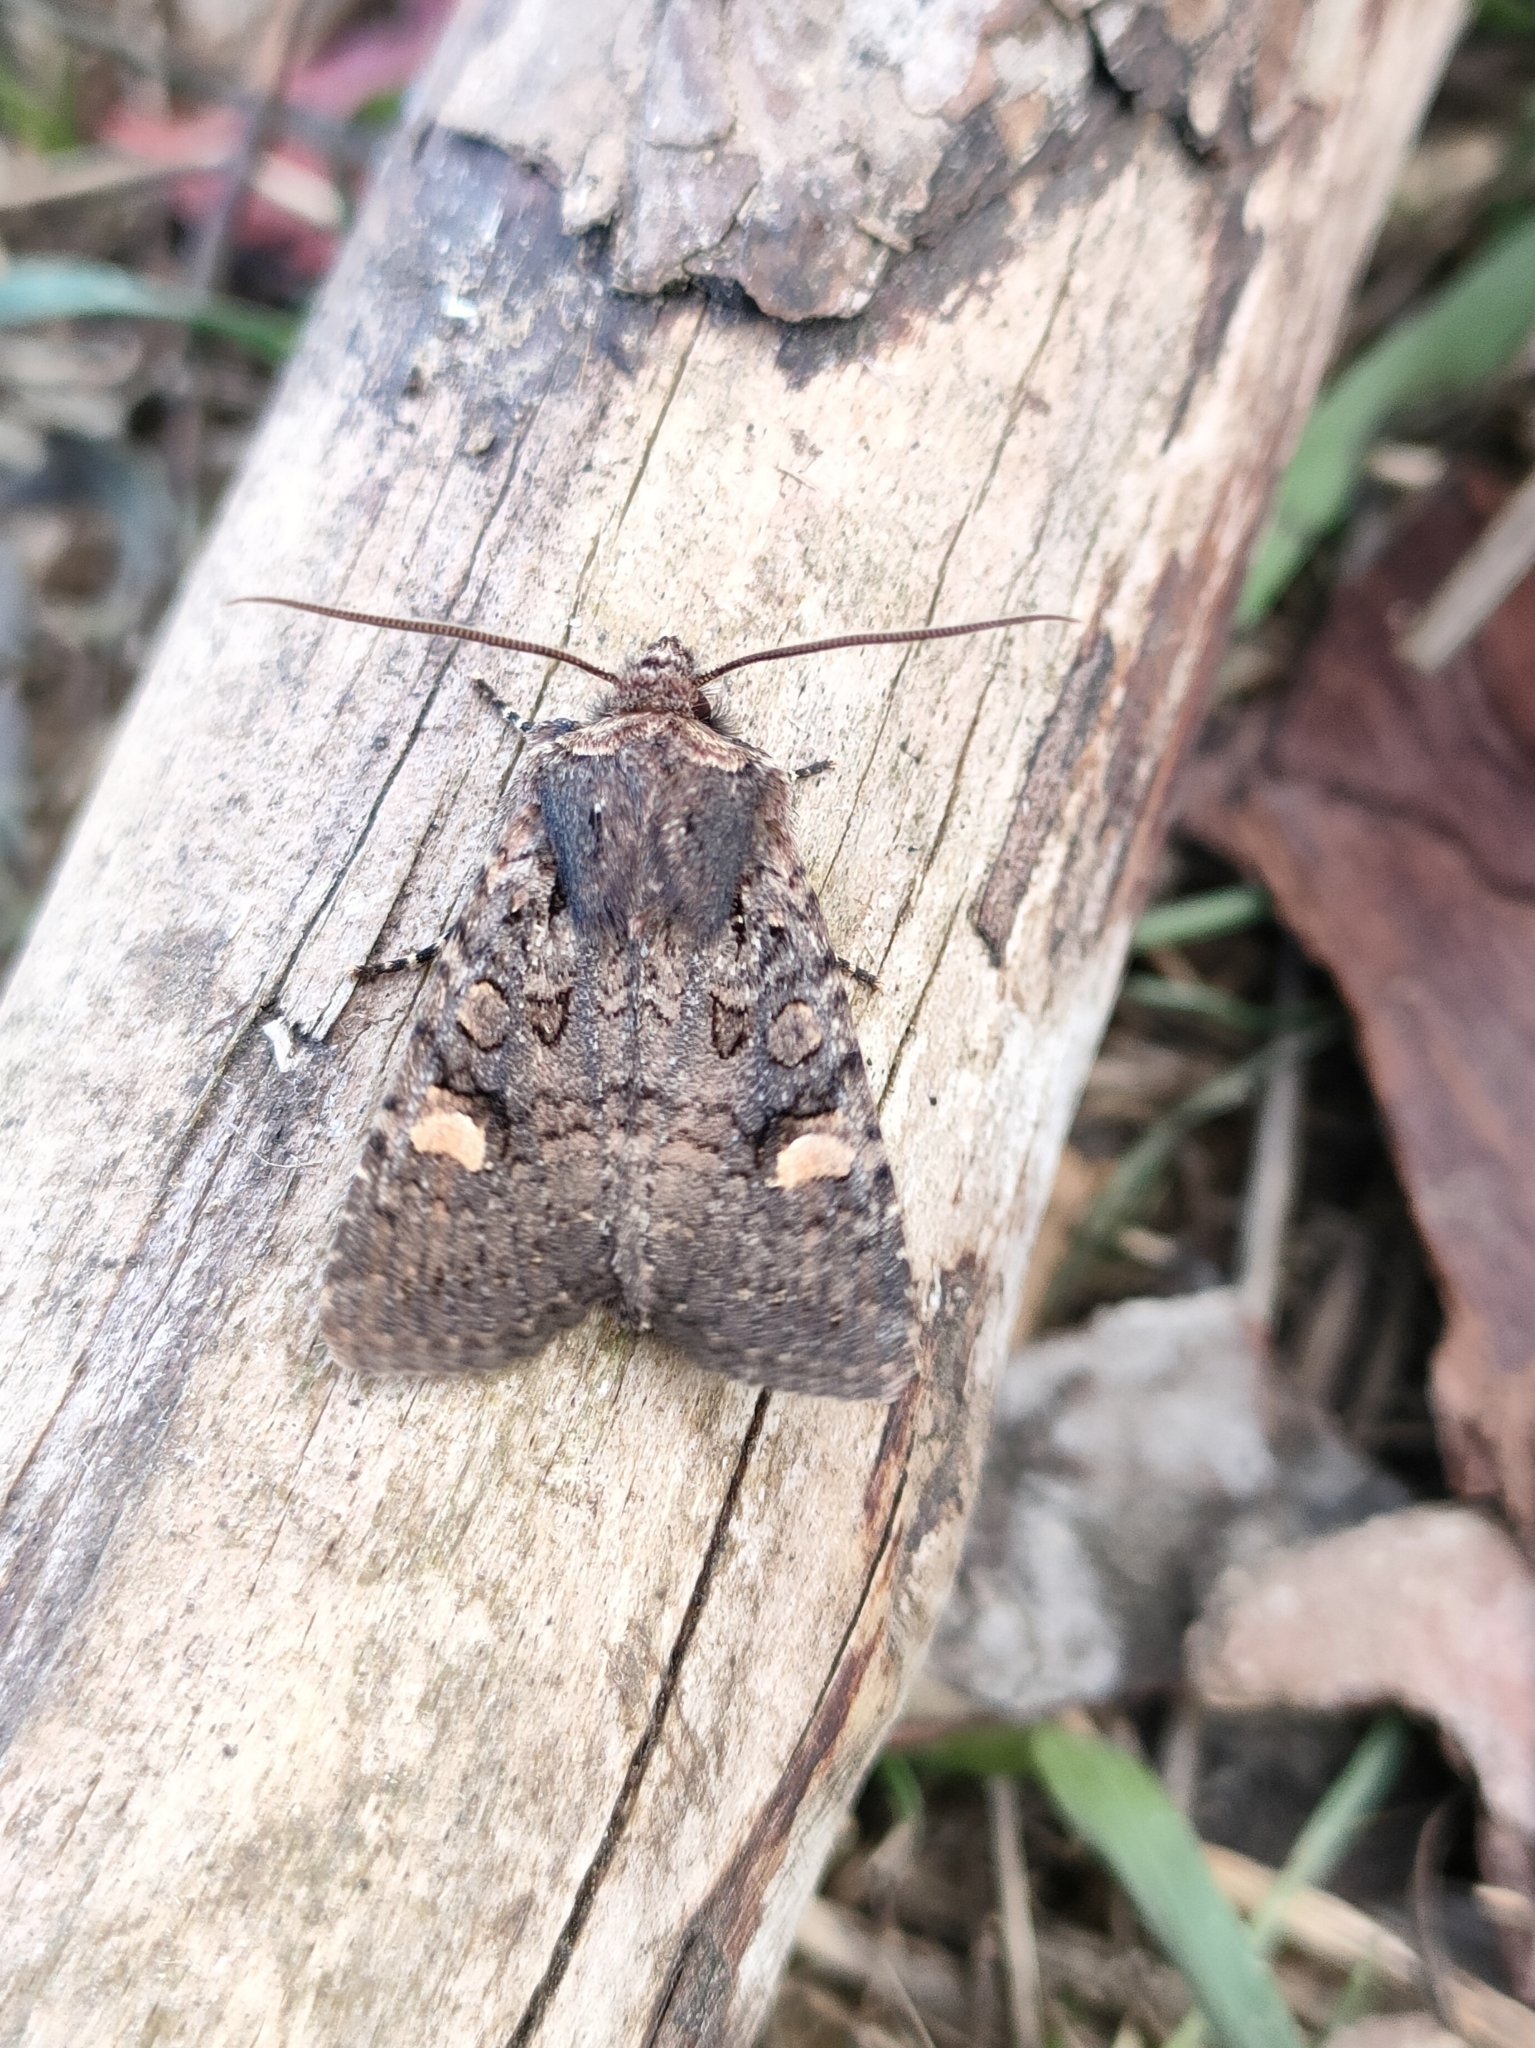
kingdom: Animalia
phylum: Arthropoda
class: Insecta
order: Lepidoptera
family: Noctuidae
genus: Dryobota
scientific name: Dryobota labecula
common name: Oak rustic
